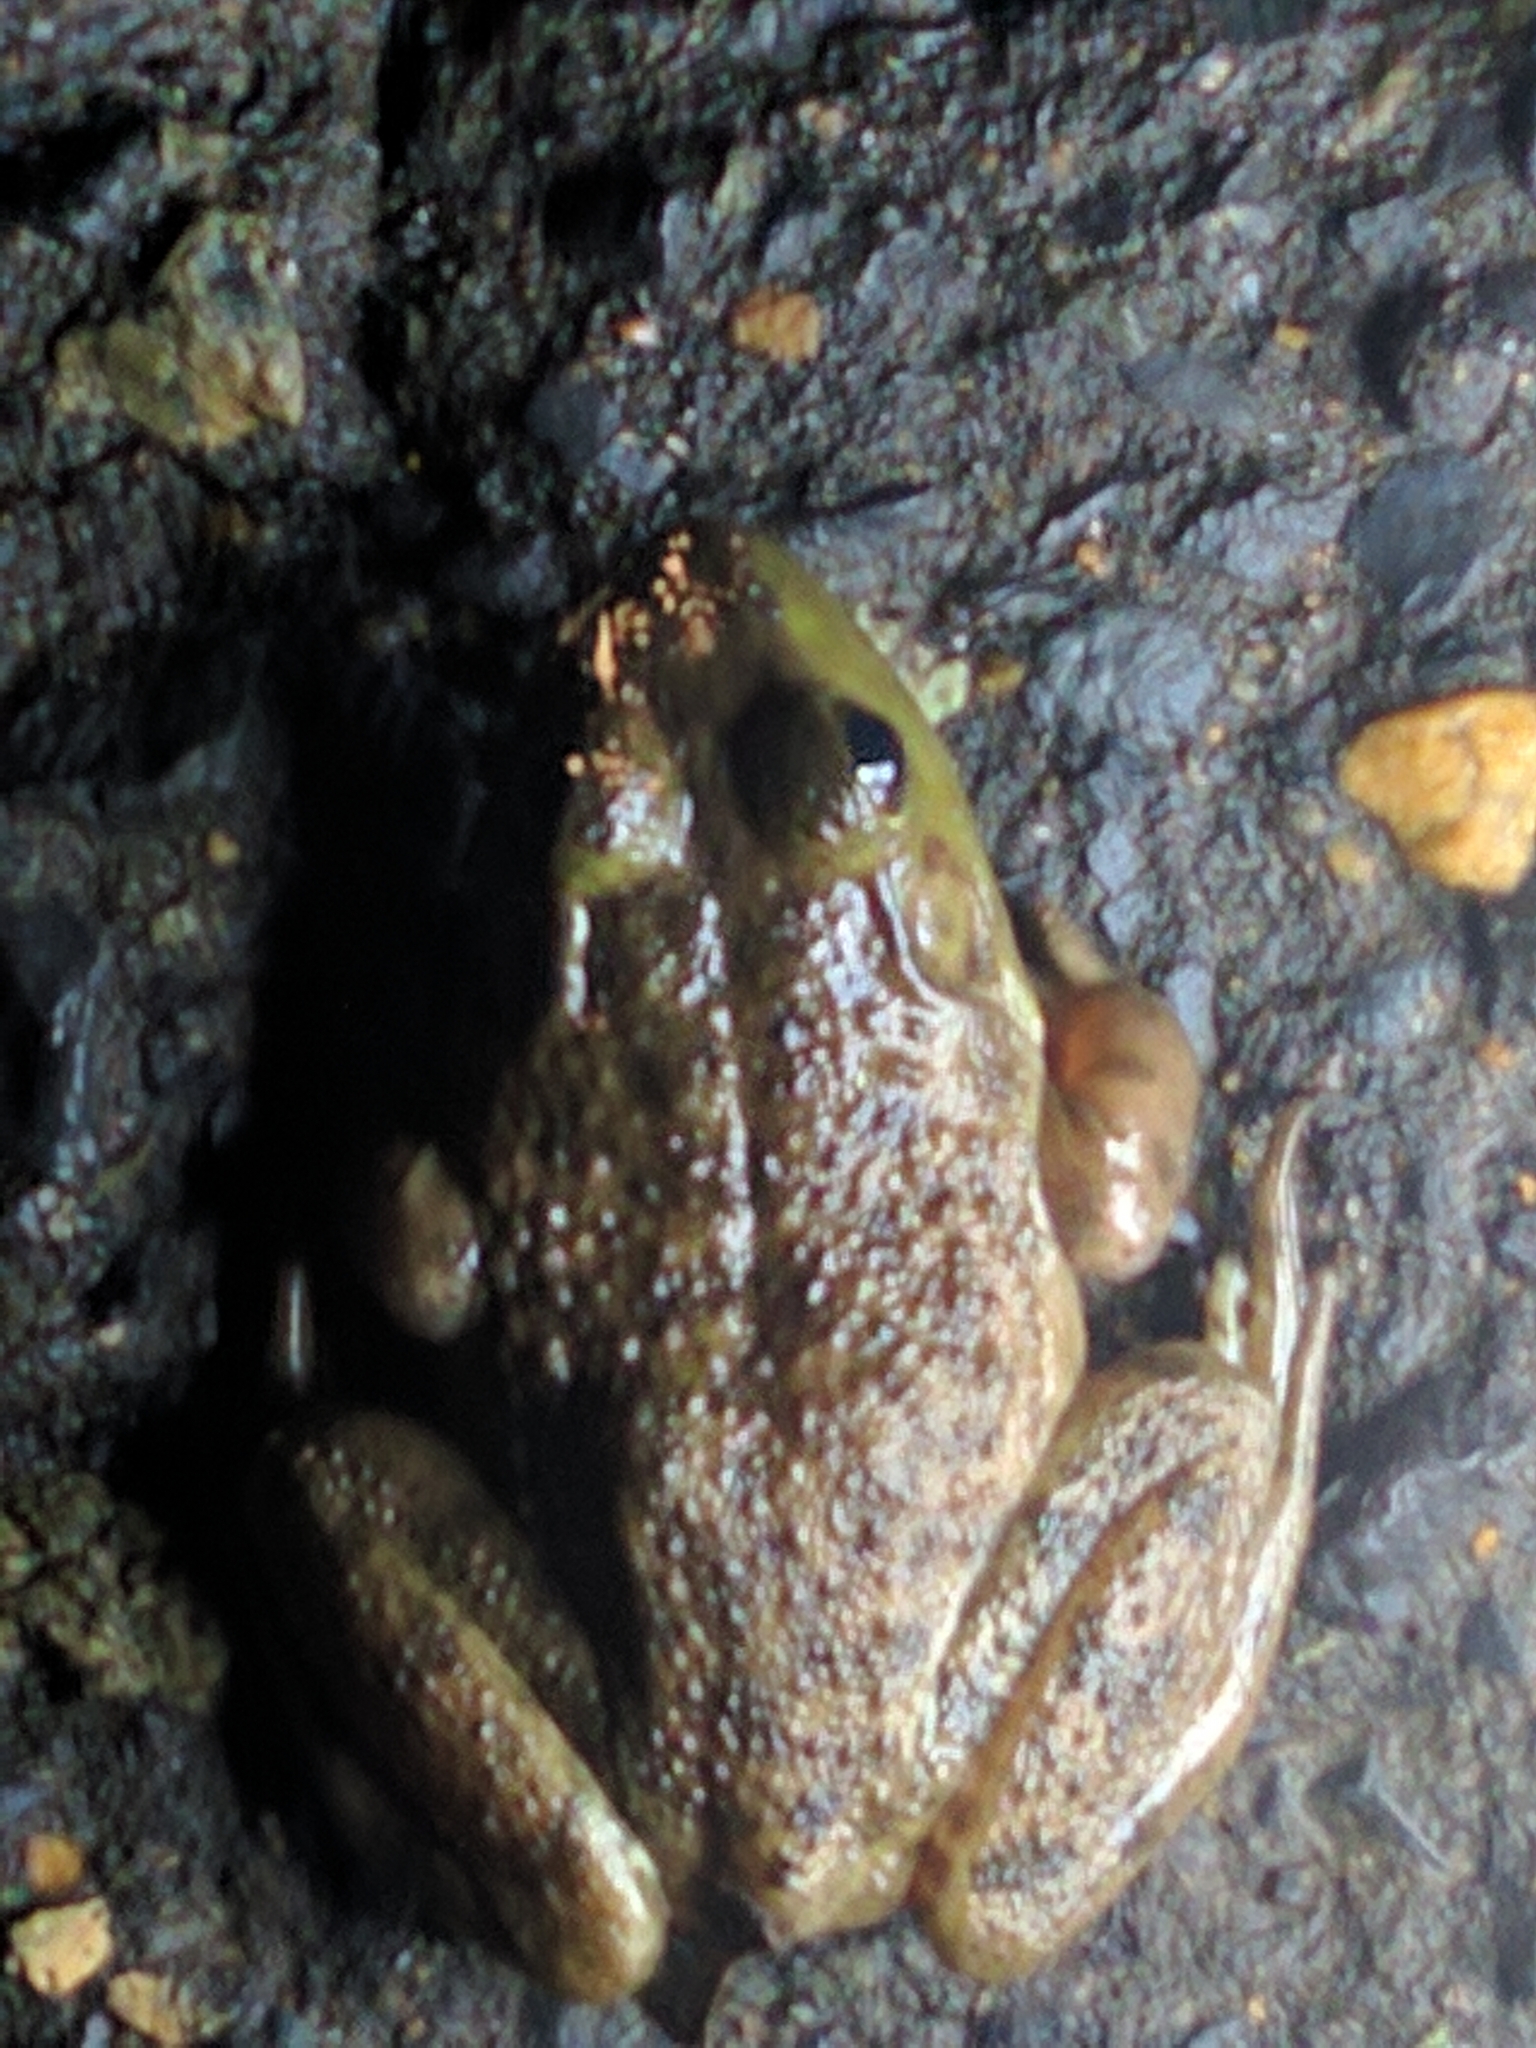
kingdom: Animalia
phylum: Chordata
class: Amphibia
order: Anura
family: Ranidae
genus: Lithobates
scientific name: Lithobates catesbeianus
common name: American bullfrog
